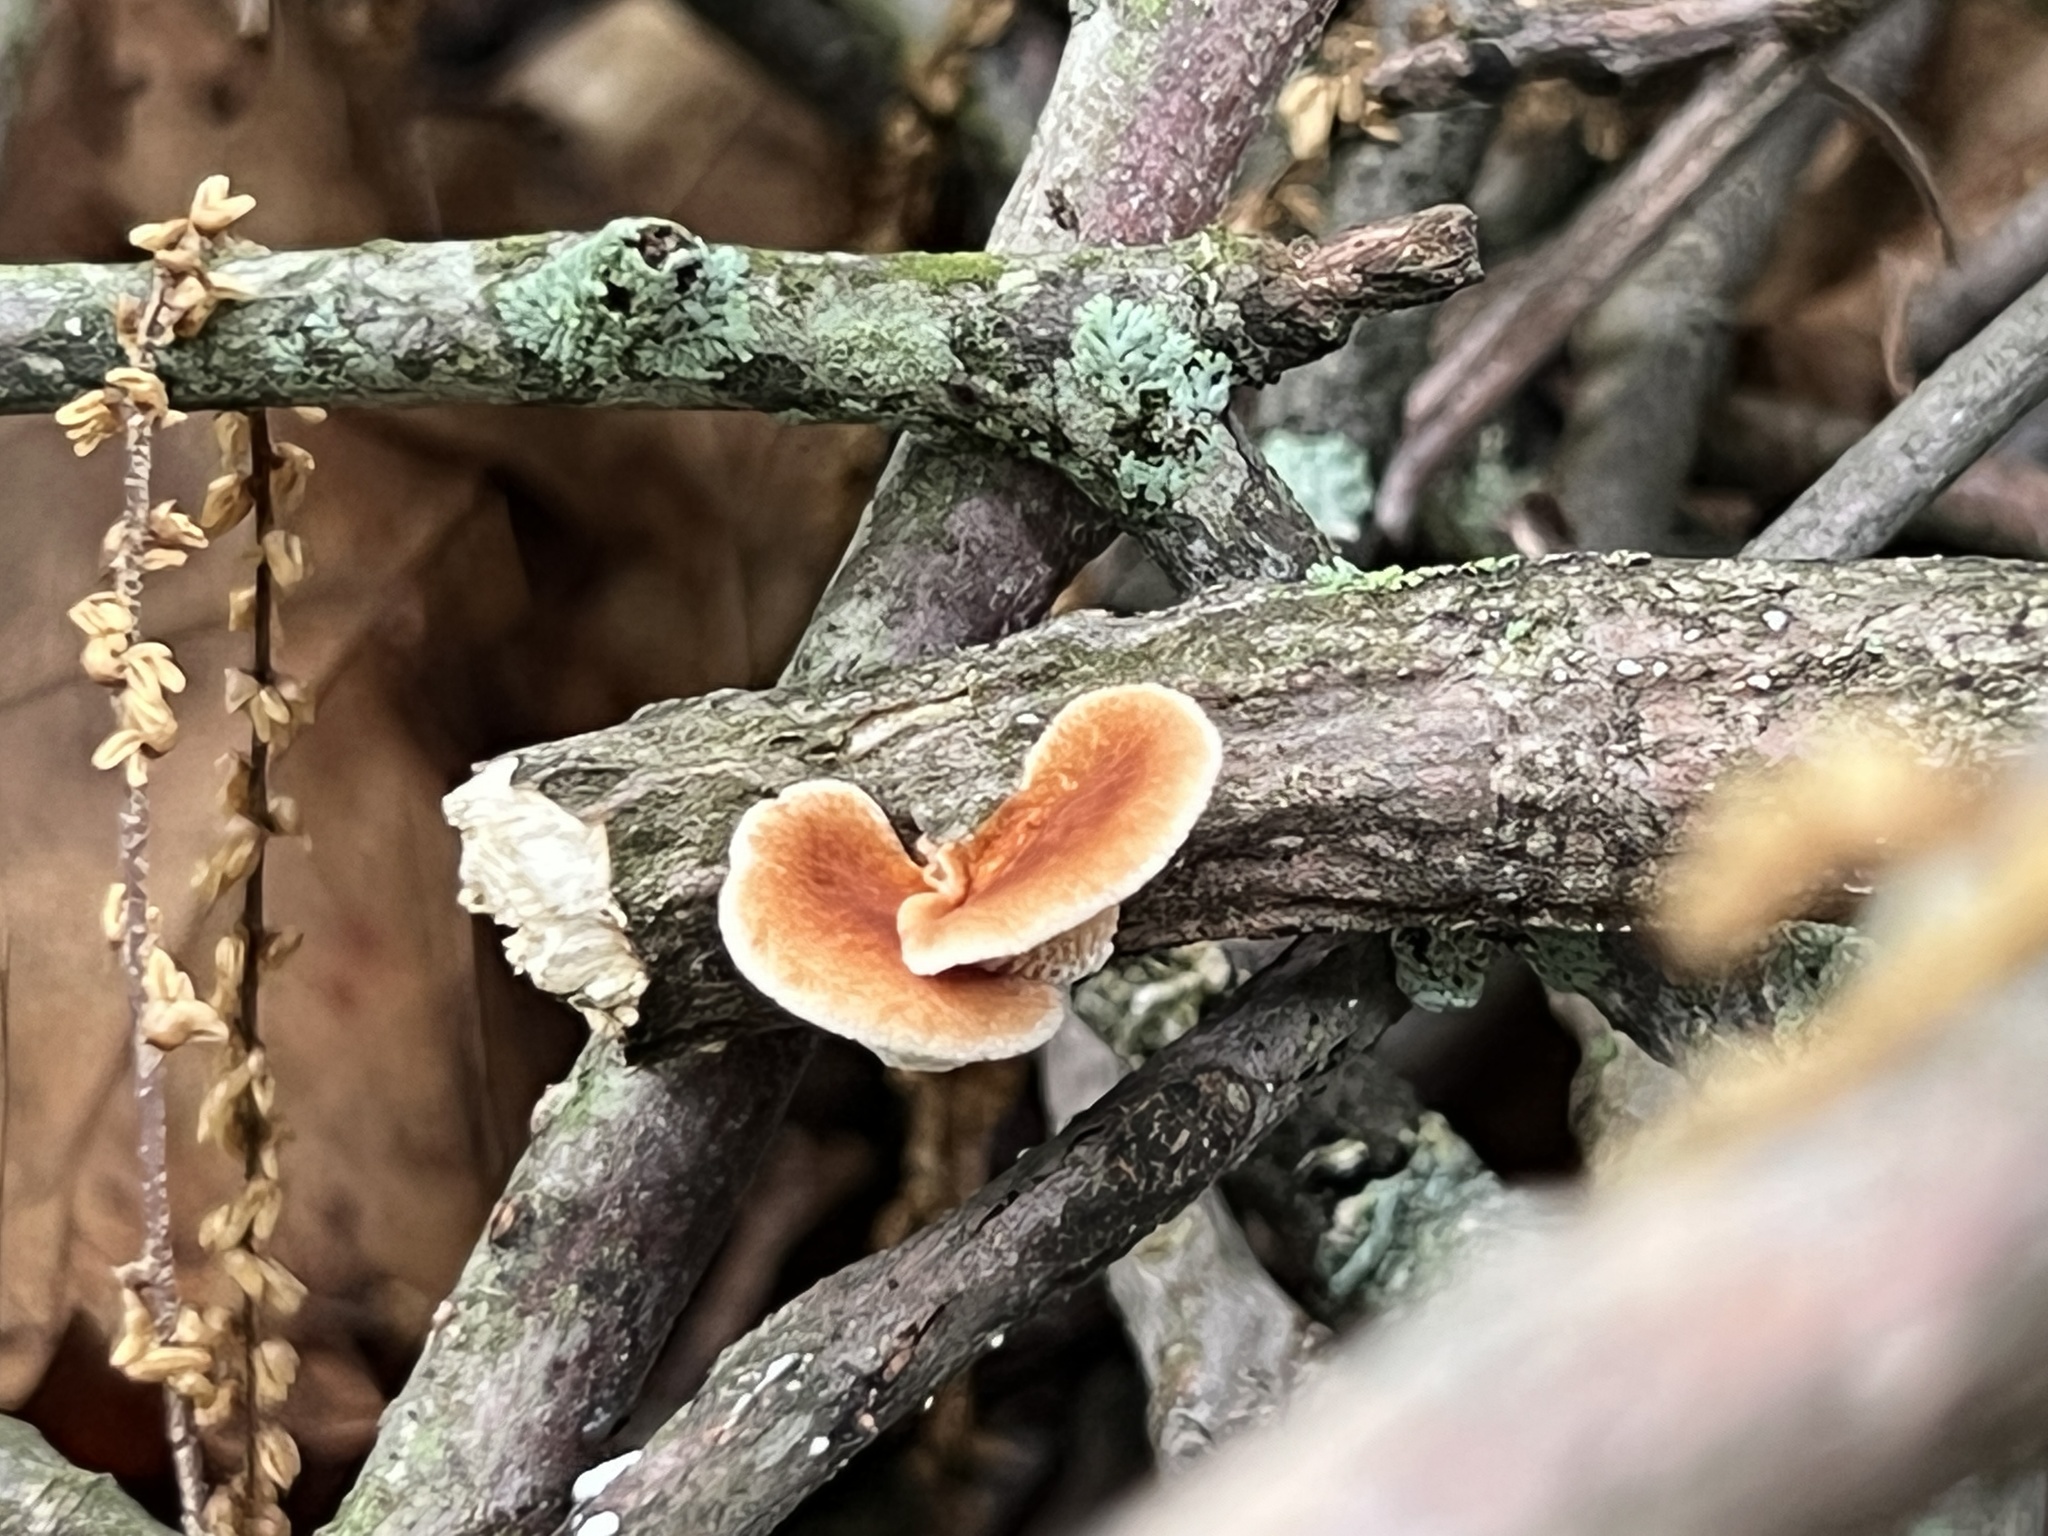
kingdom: Fungi
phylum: Basidiomycota
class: Agaricomycetes
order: Polyporales
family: Polyporaceae
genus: Neofavolus
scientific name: Neofavolus alveolaris
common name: Hexagonal-pored polypore
